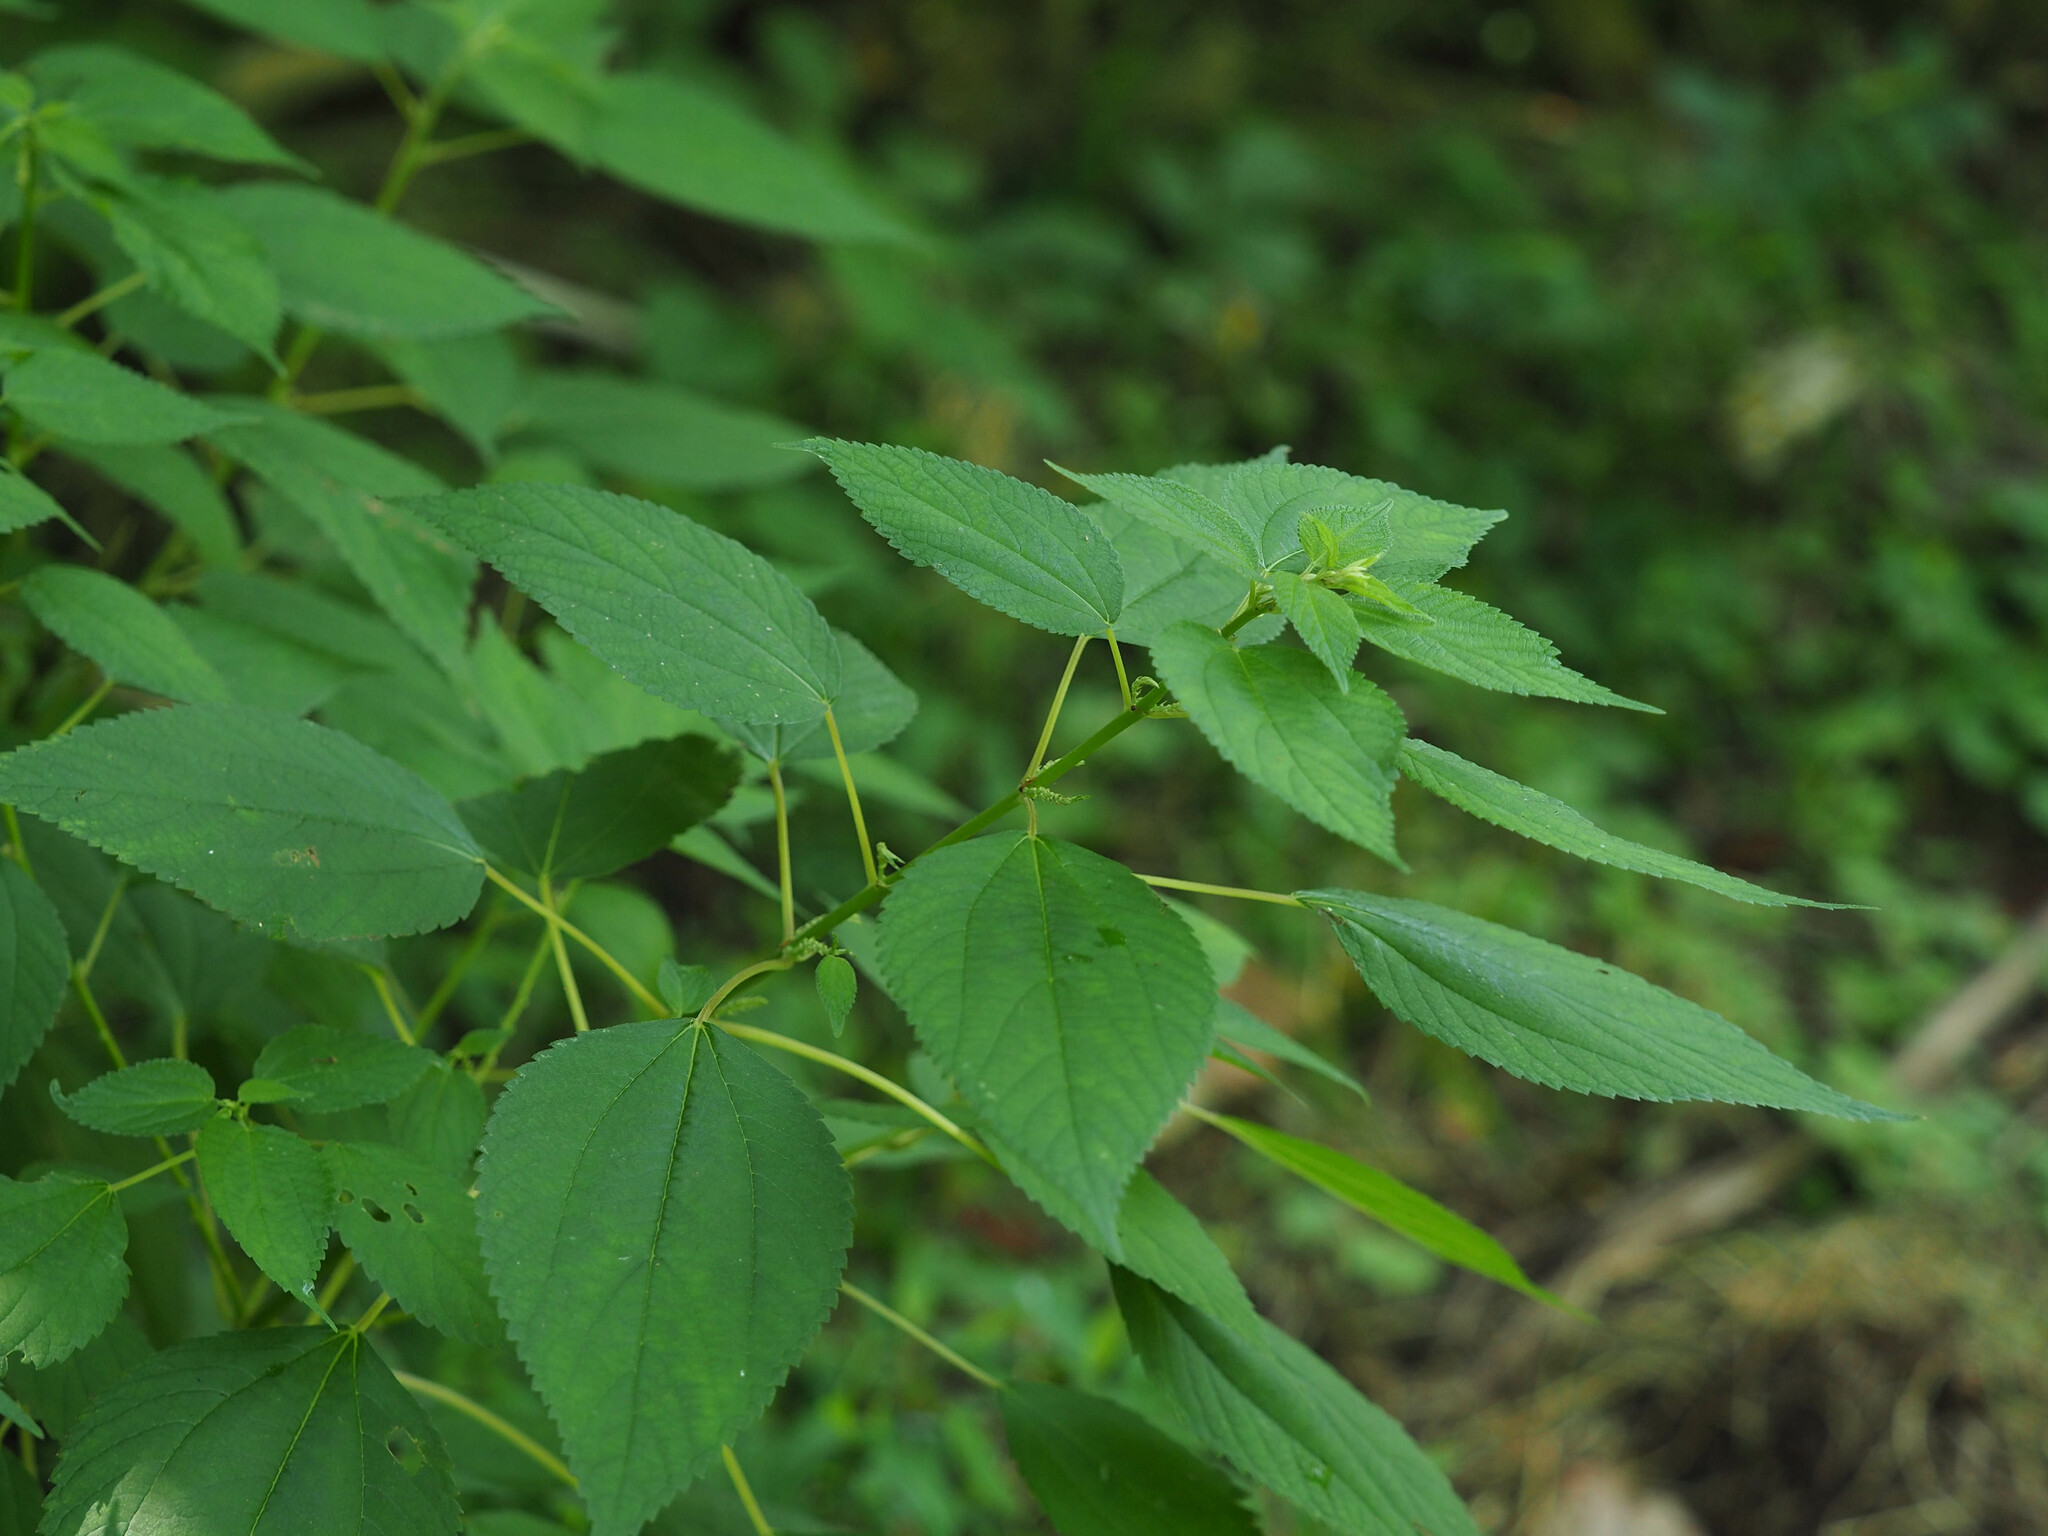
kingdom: Plantae
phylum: Tracheophyta
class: Magnoliopsida
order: Rosales
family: Urticaceae
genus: Boehmeria
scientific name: Boehmeria cylindrica
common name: Bog-hemp
